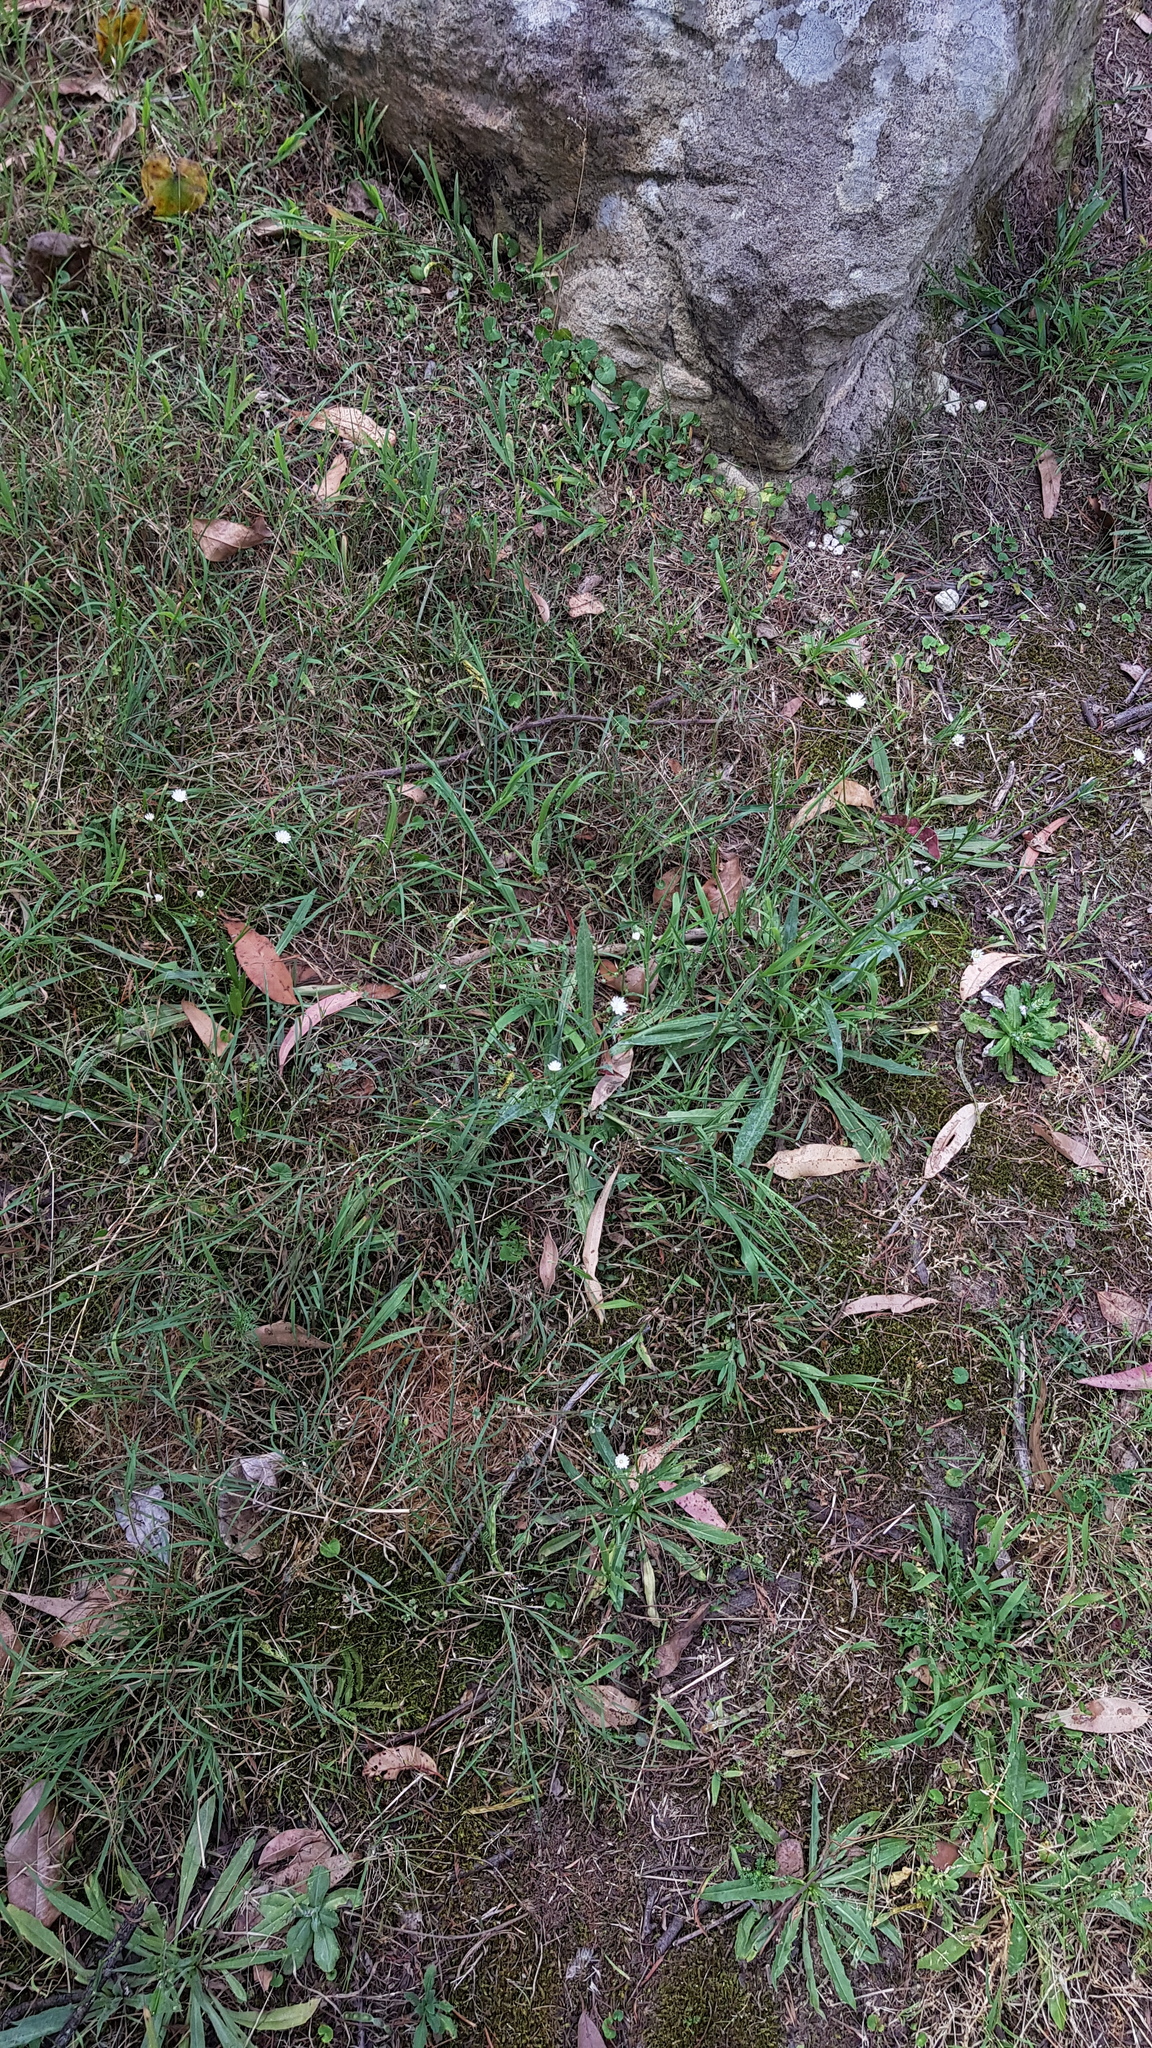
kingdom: Plantae
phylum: Tracheophyta
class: Magnoliopsida
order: Asterales
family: Asteraceae
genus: Hypochaeris
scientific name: Hypochaeris albiflora
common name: White flatweed
